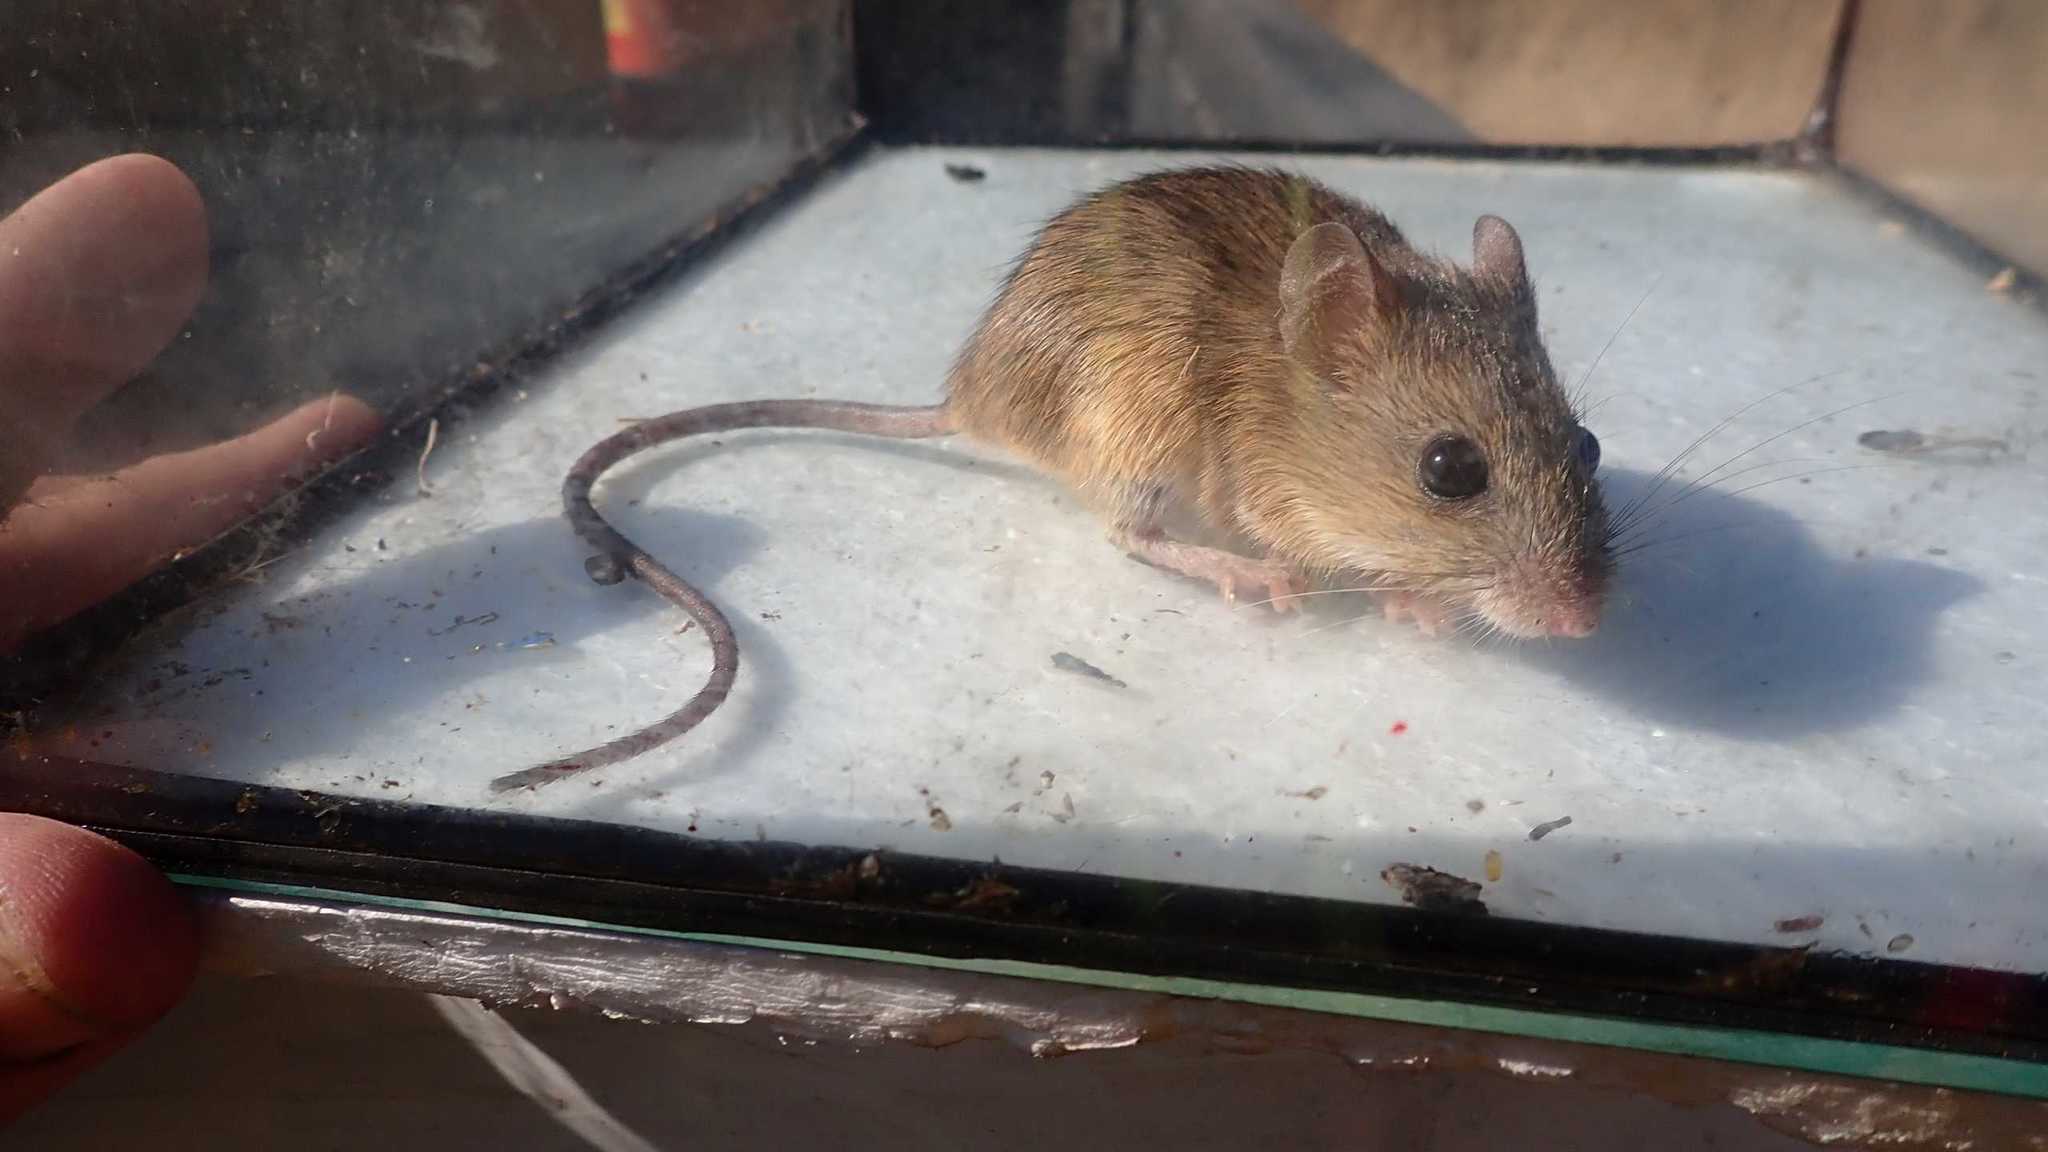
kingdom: Animalia
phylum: Chordata
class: Mammalia
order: Rodentia
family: Muridae
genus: Micaelamys
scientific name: Micaelamys namaquensis
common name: Namaqua micaelamys
